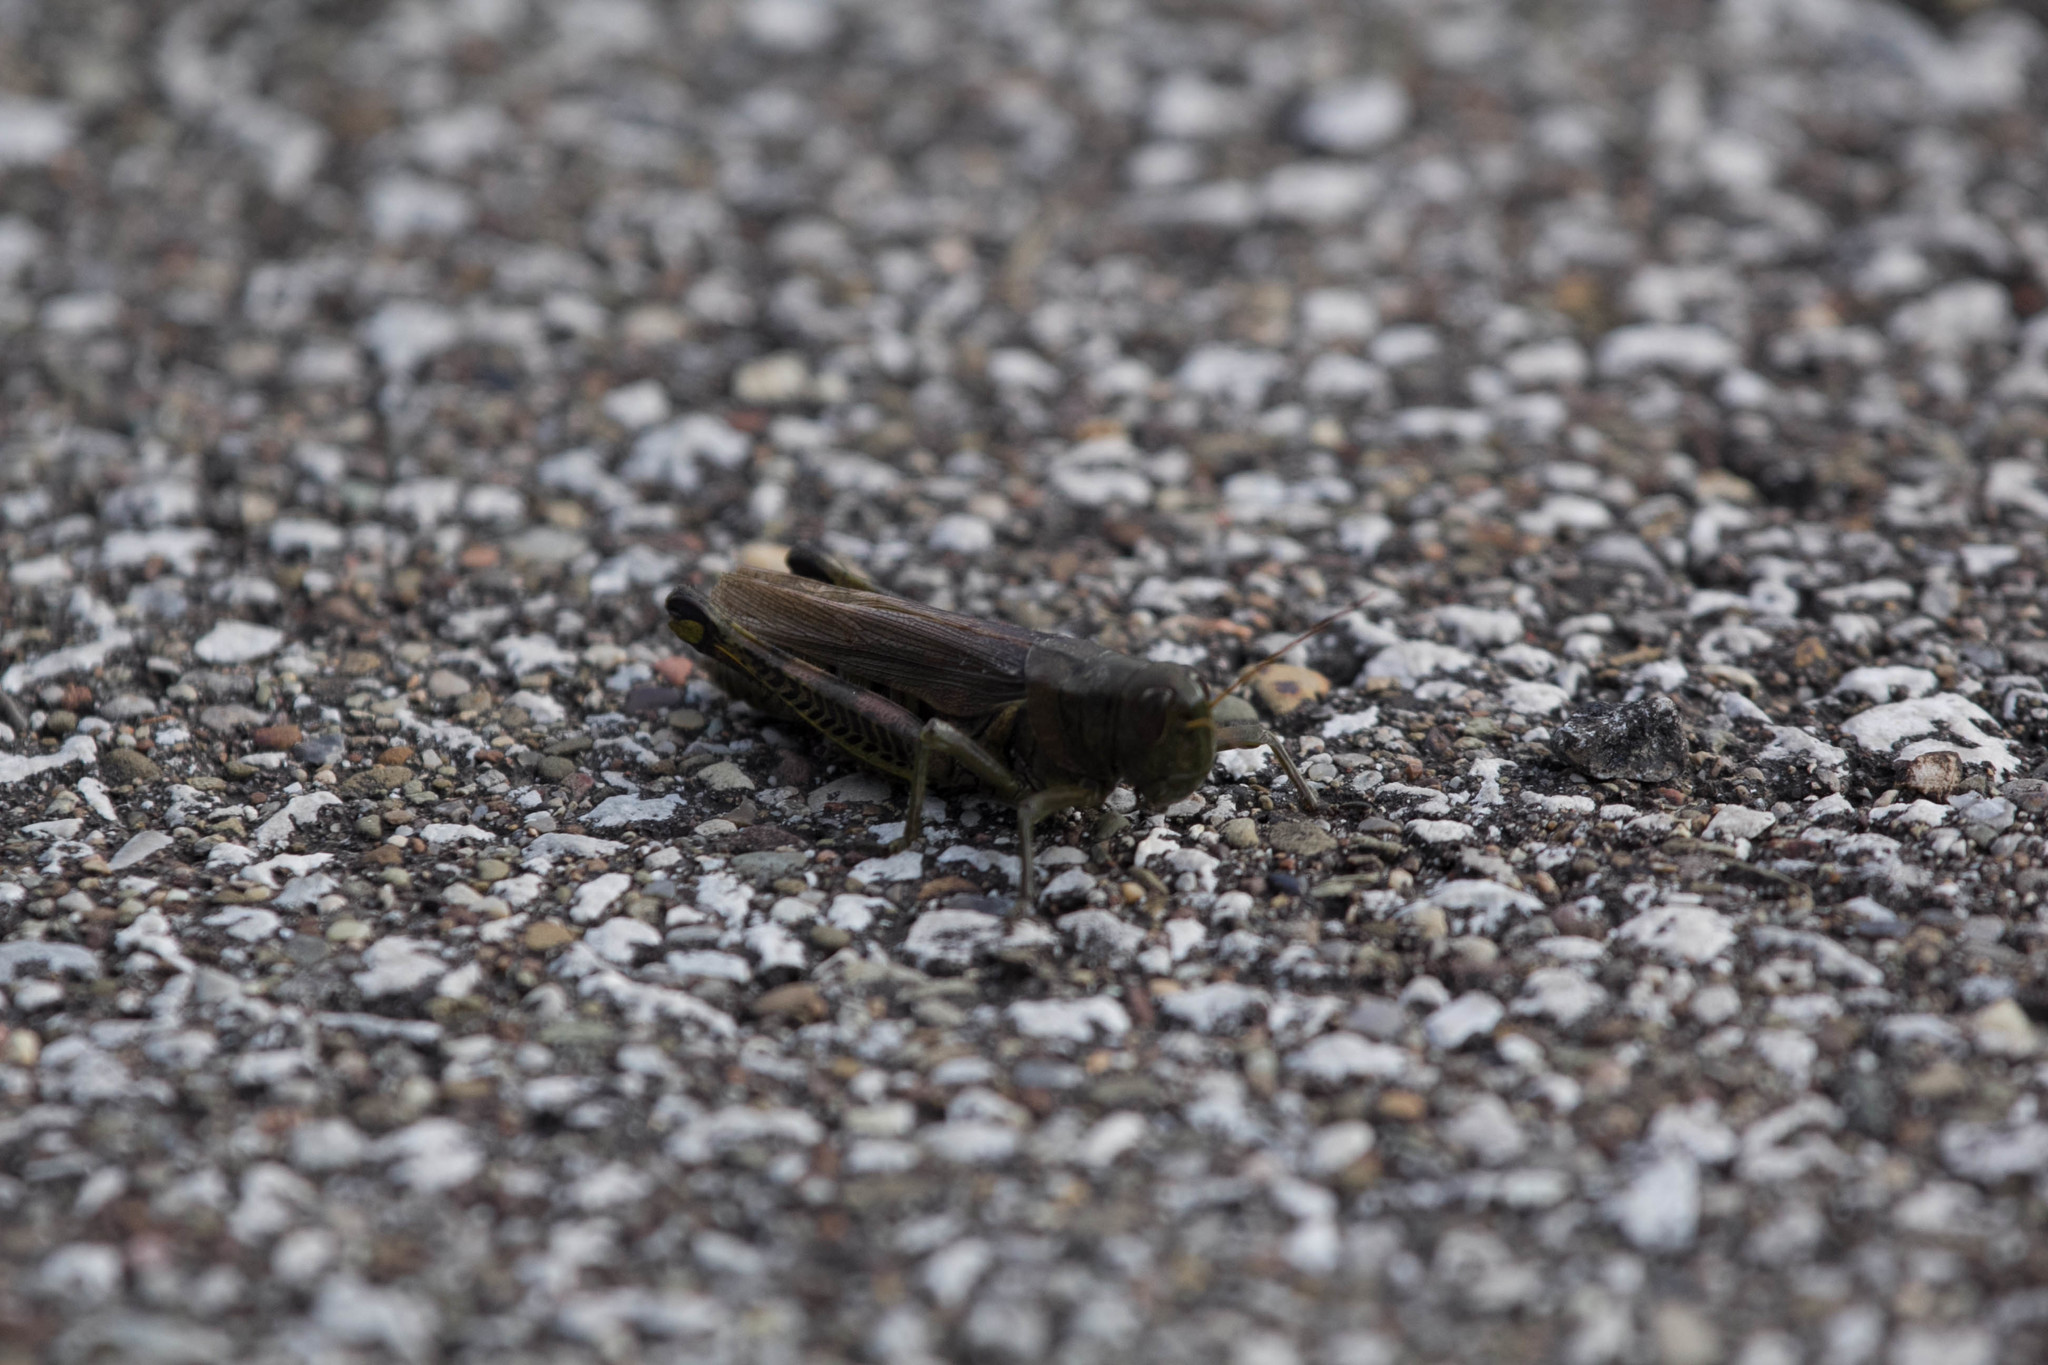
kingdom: Animalia
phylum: Arthropoda
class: Insecta
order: Orthoptera
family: Acrididae
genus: Melanoplus
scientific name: Melanoplus differentialis
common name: Differential grasshopper
